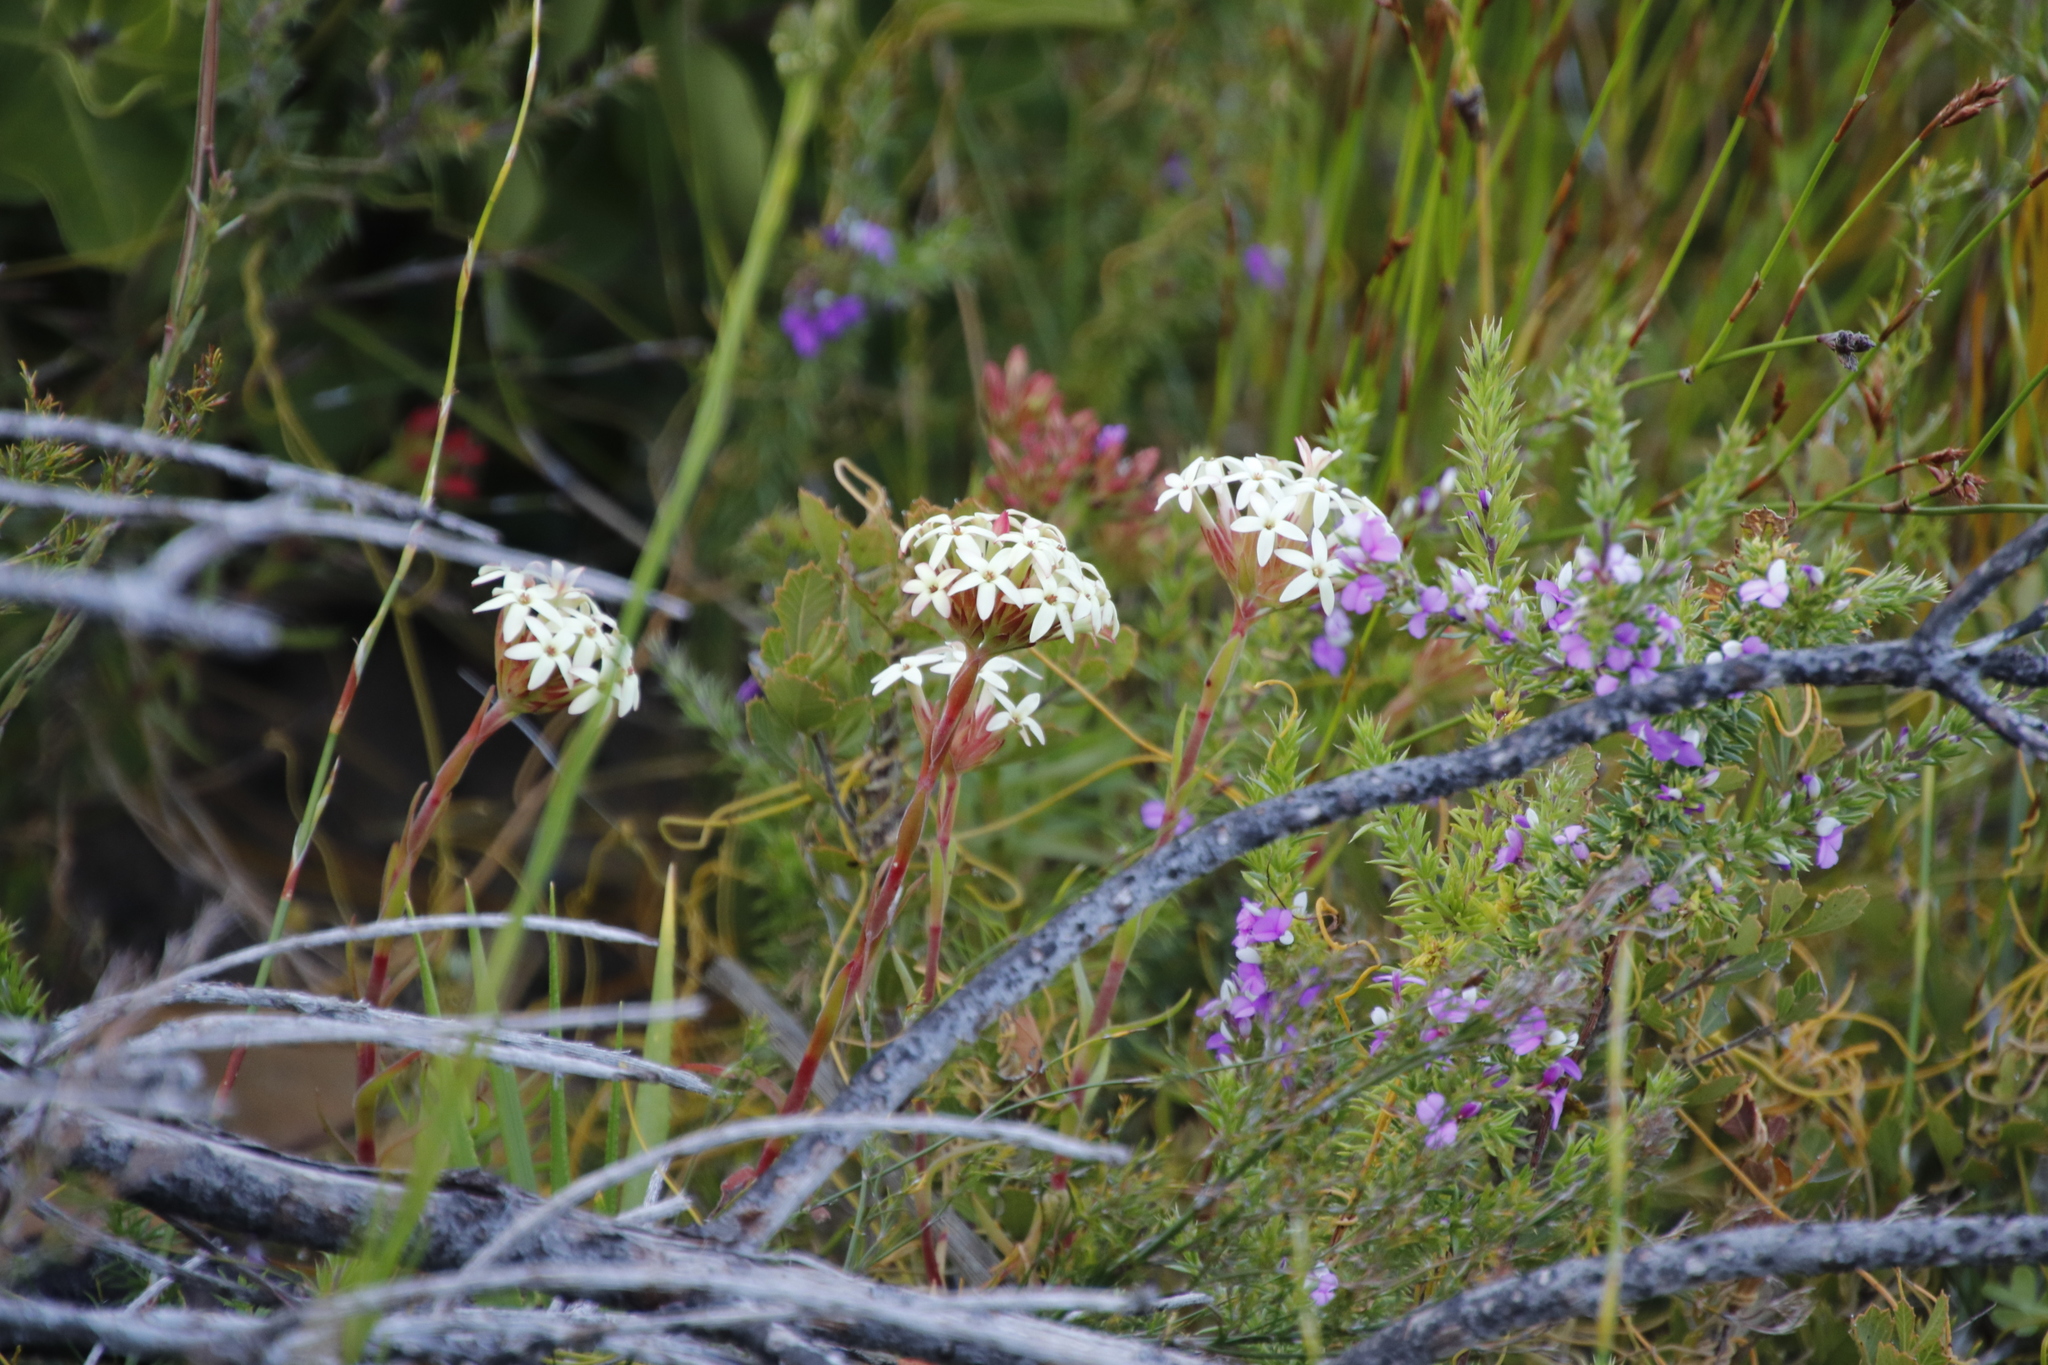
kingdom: Plantae
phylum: Tracheophyta
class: Magnoliopsida
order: Saxifragales
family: Crassulaceae
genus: Crassula
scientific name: Crassula fascicularis
